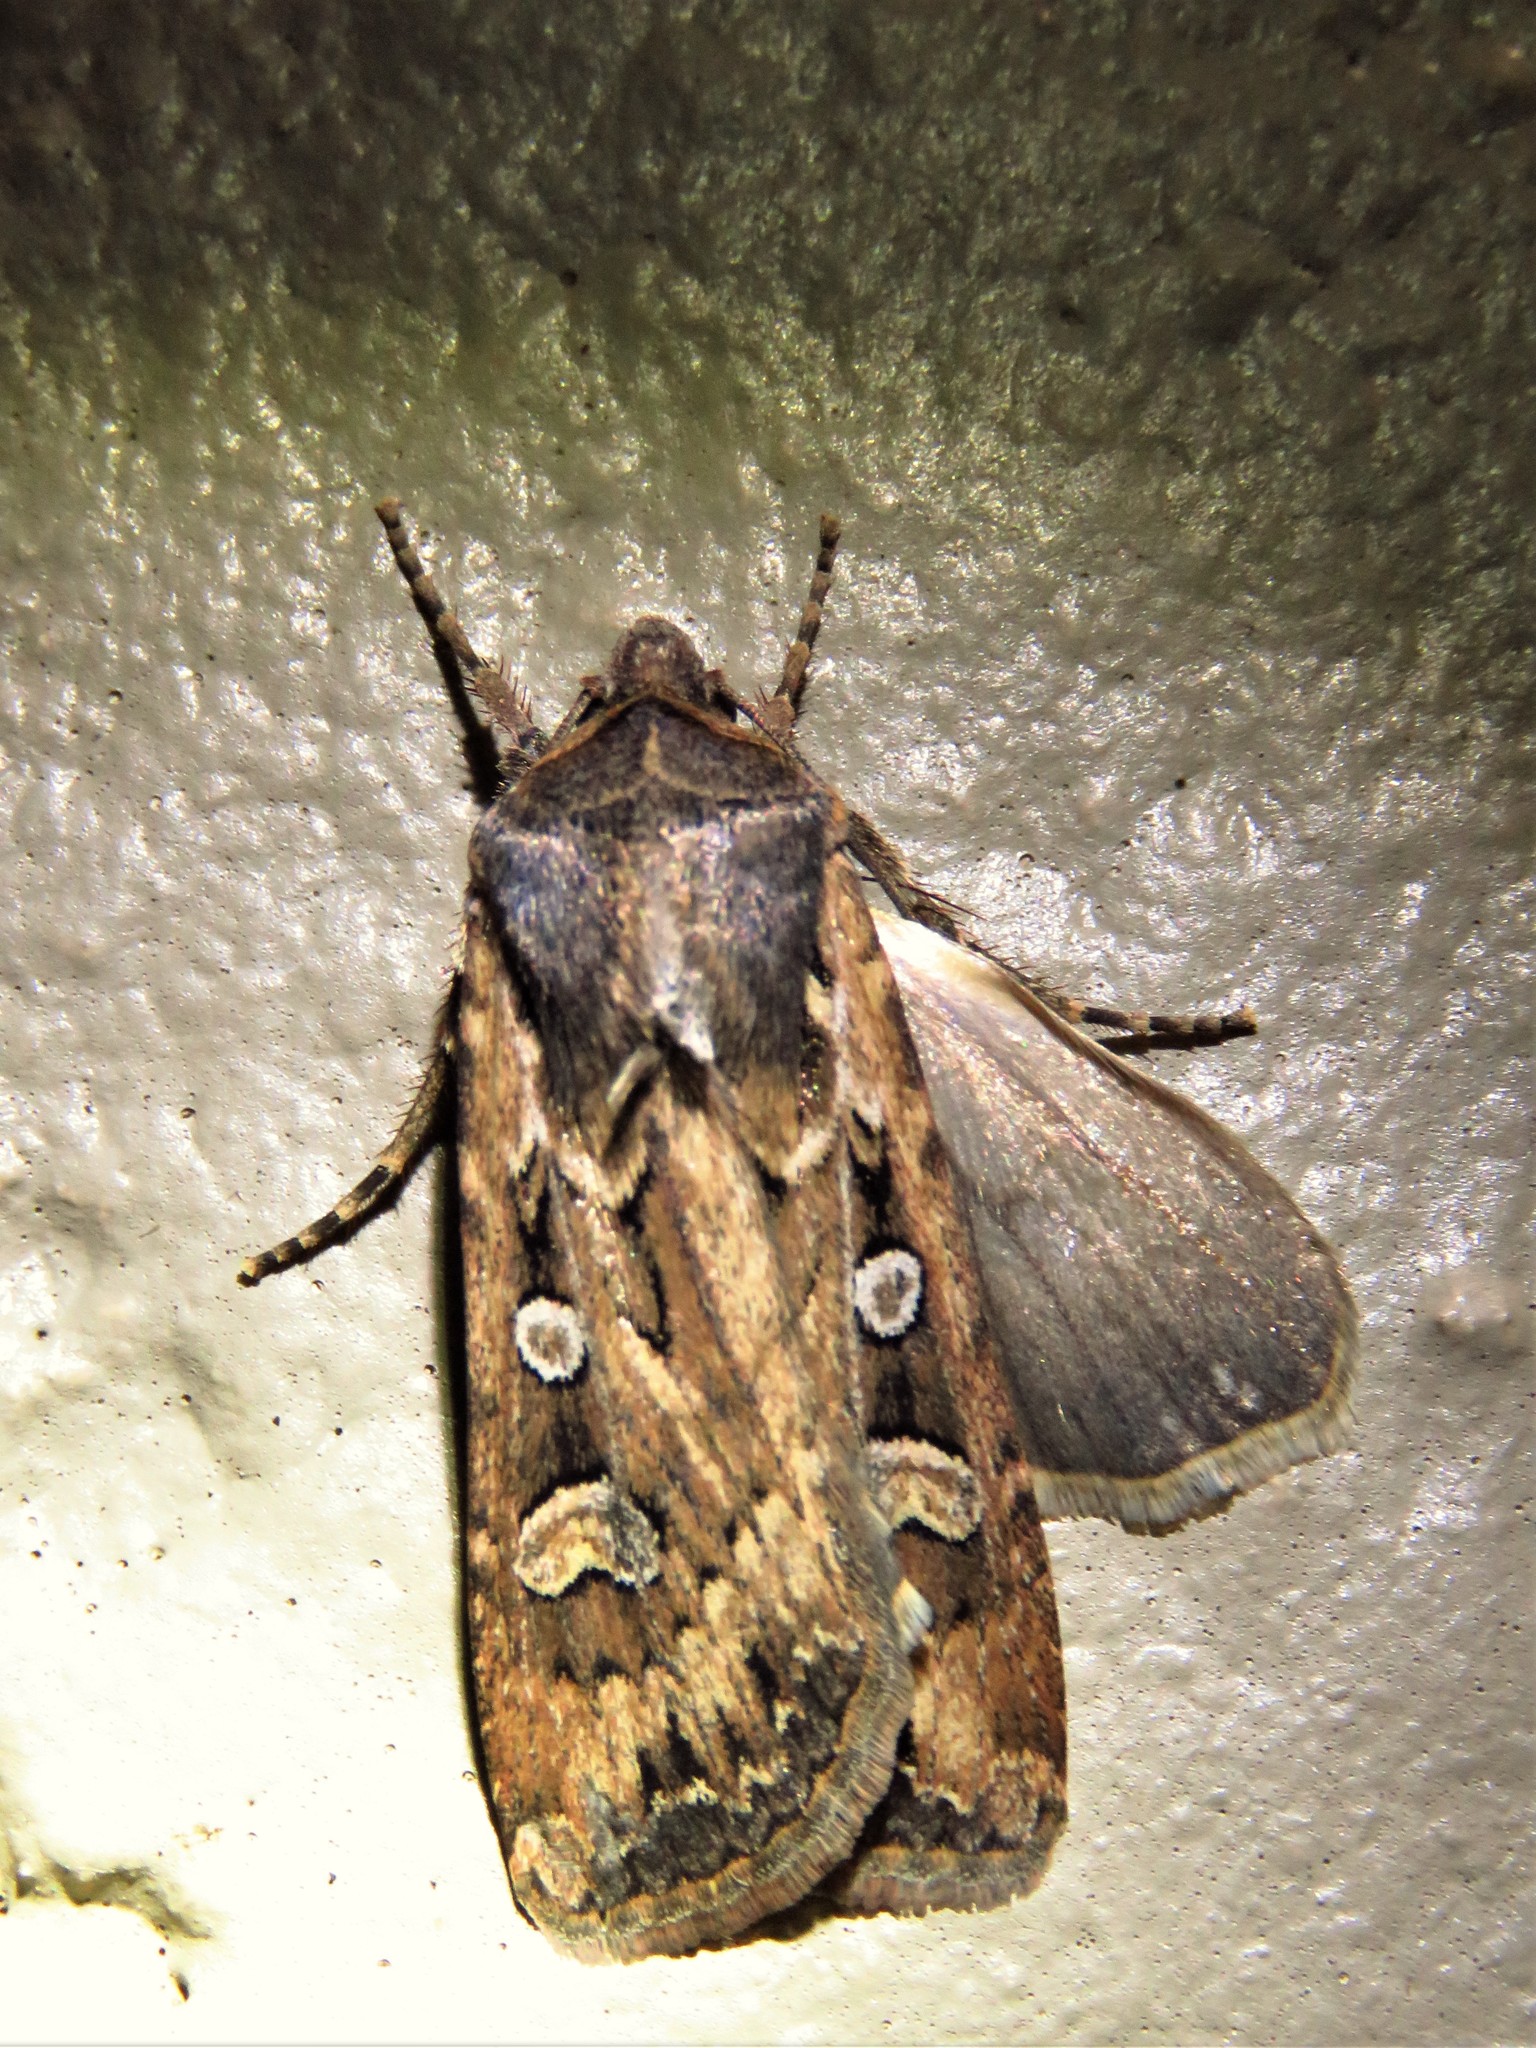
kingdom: Animalia
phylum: Arthropoda
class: Insecta
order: Lepidoptera
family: Noctuidae
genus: Euxoa
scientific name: Euxoa auxiliaris
